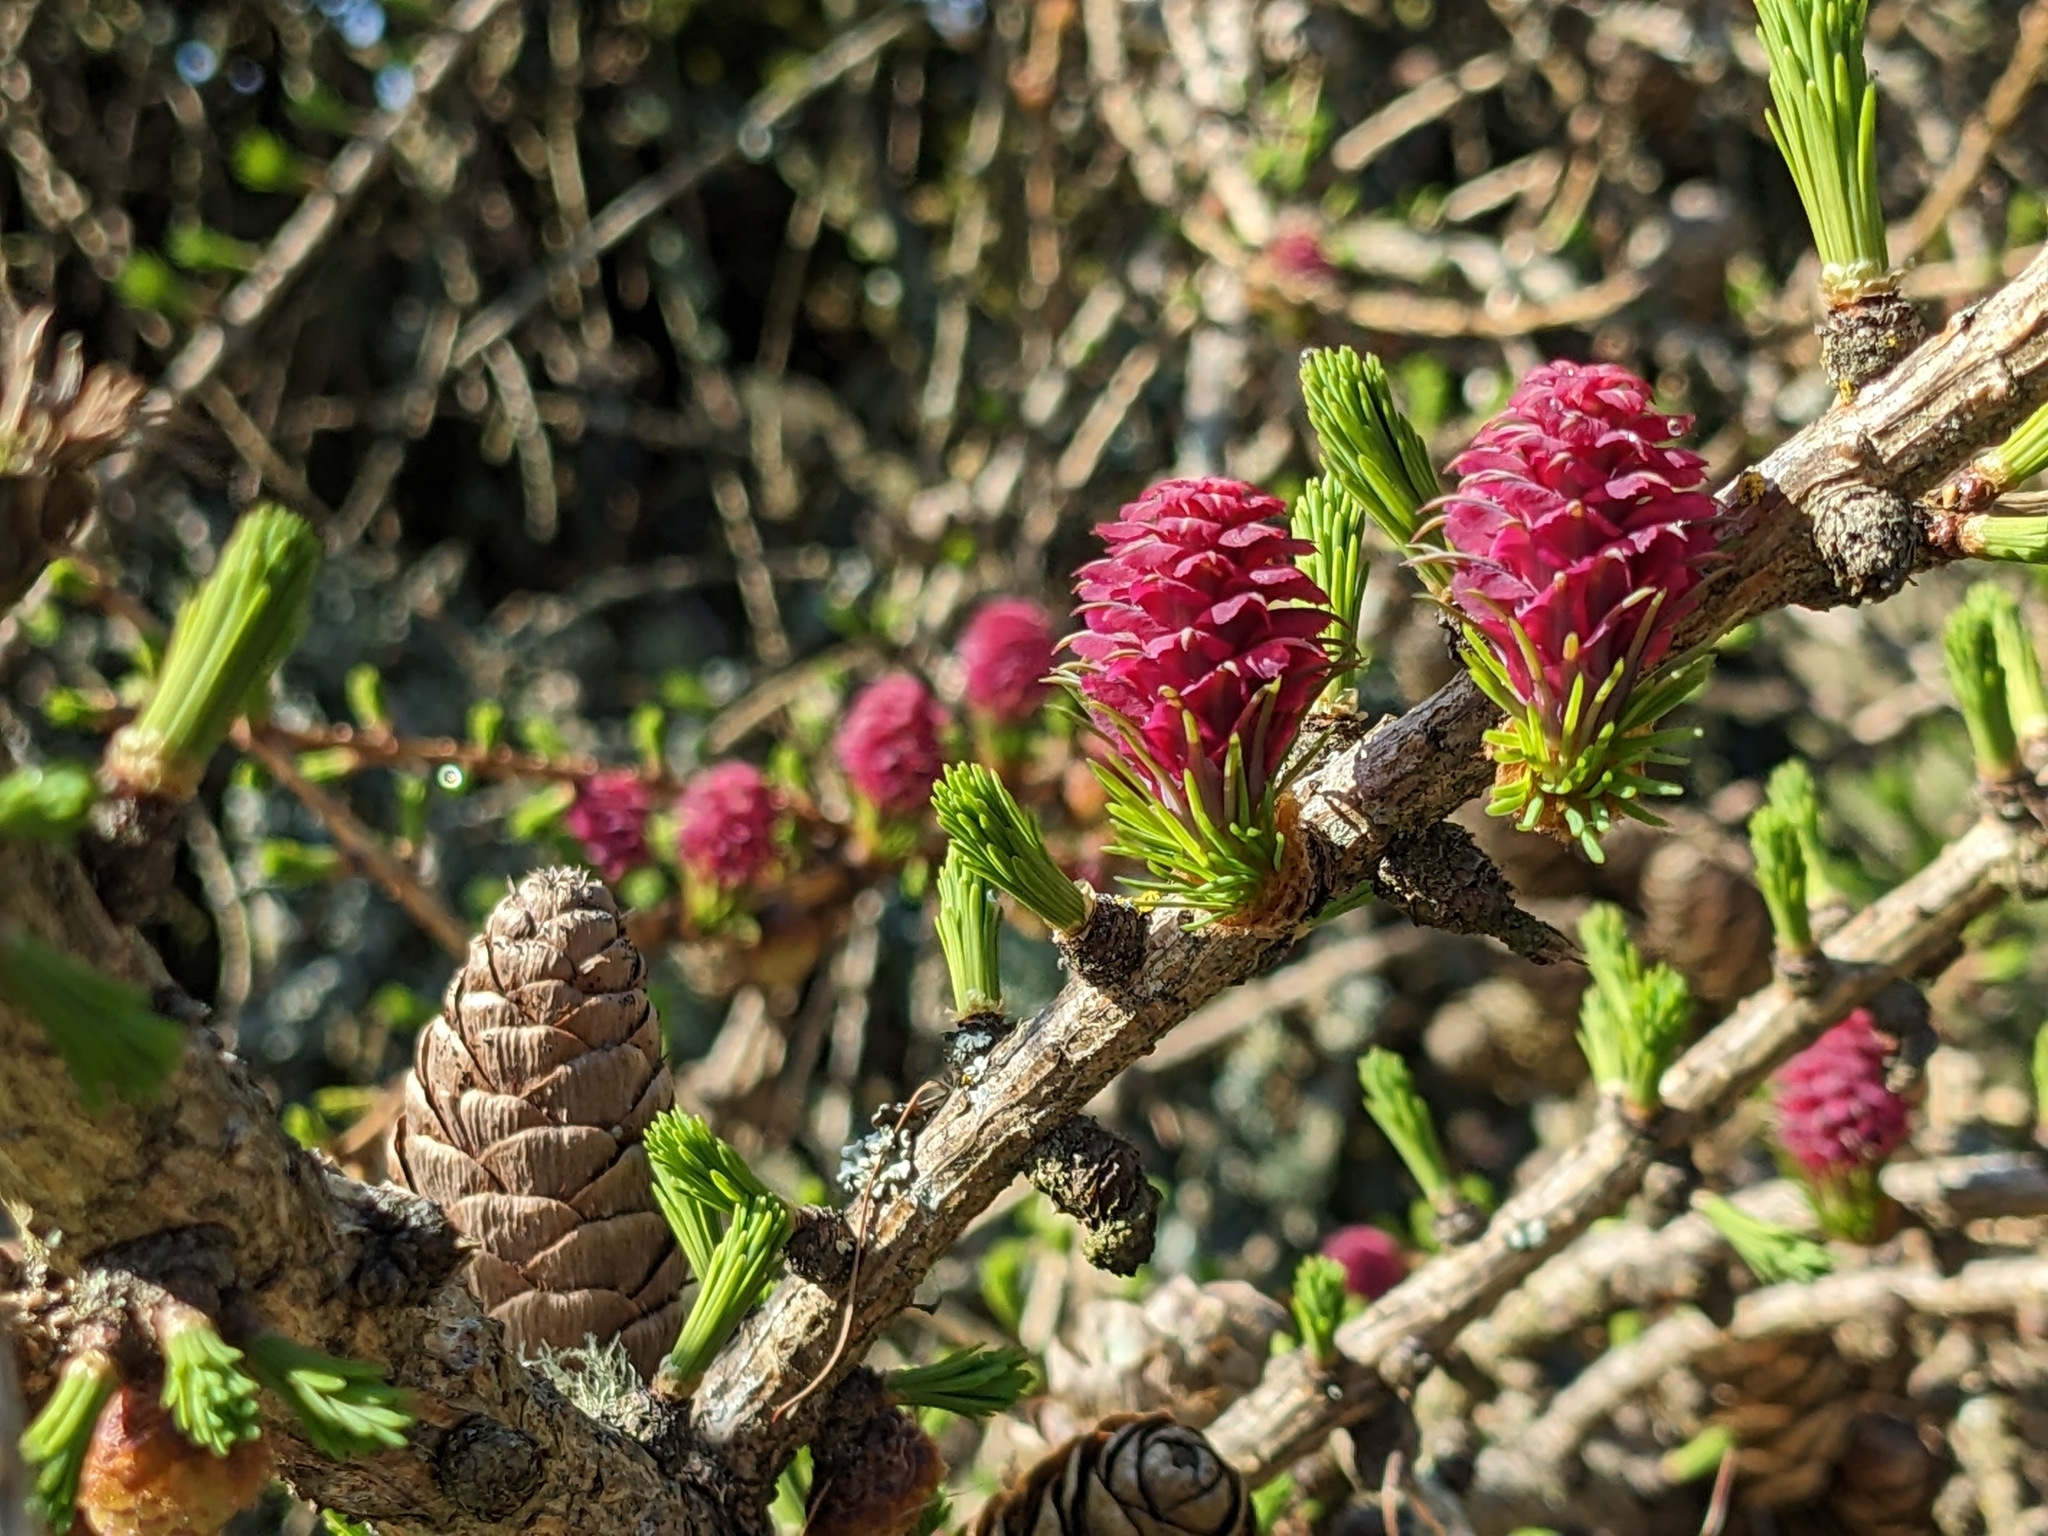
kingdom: Plantae
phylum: Tracheophyta
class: Pinopsida
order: Pinales
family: Pinaceae
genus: Larix
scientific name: Larix decidua
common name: European larch
